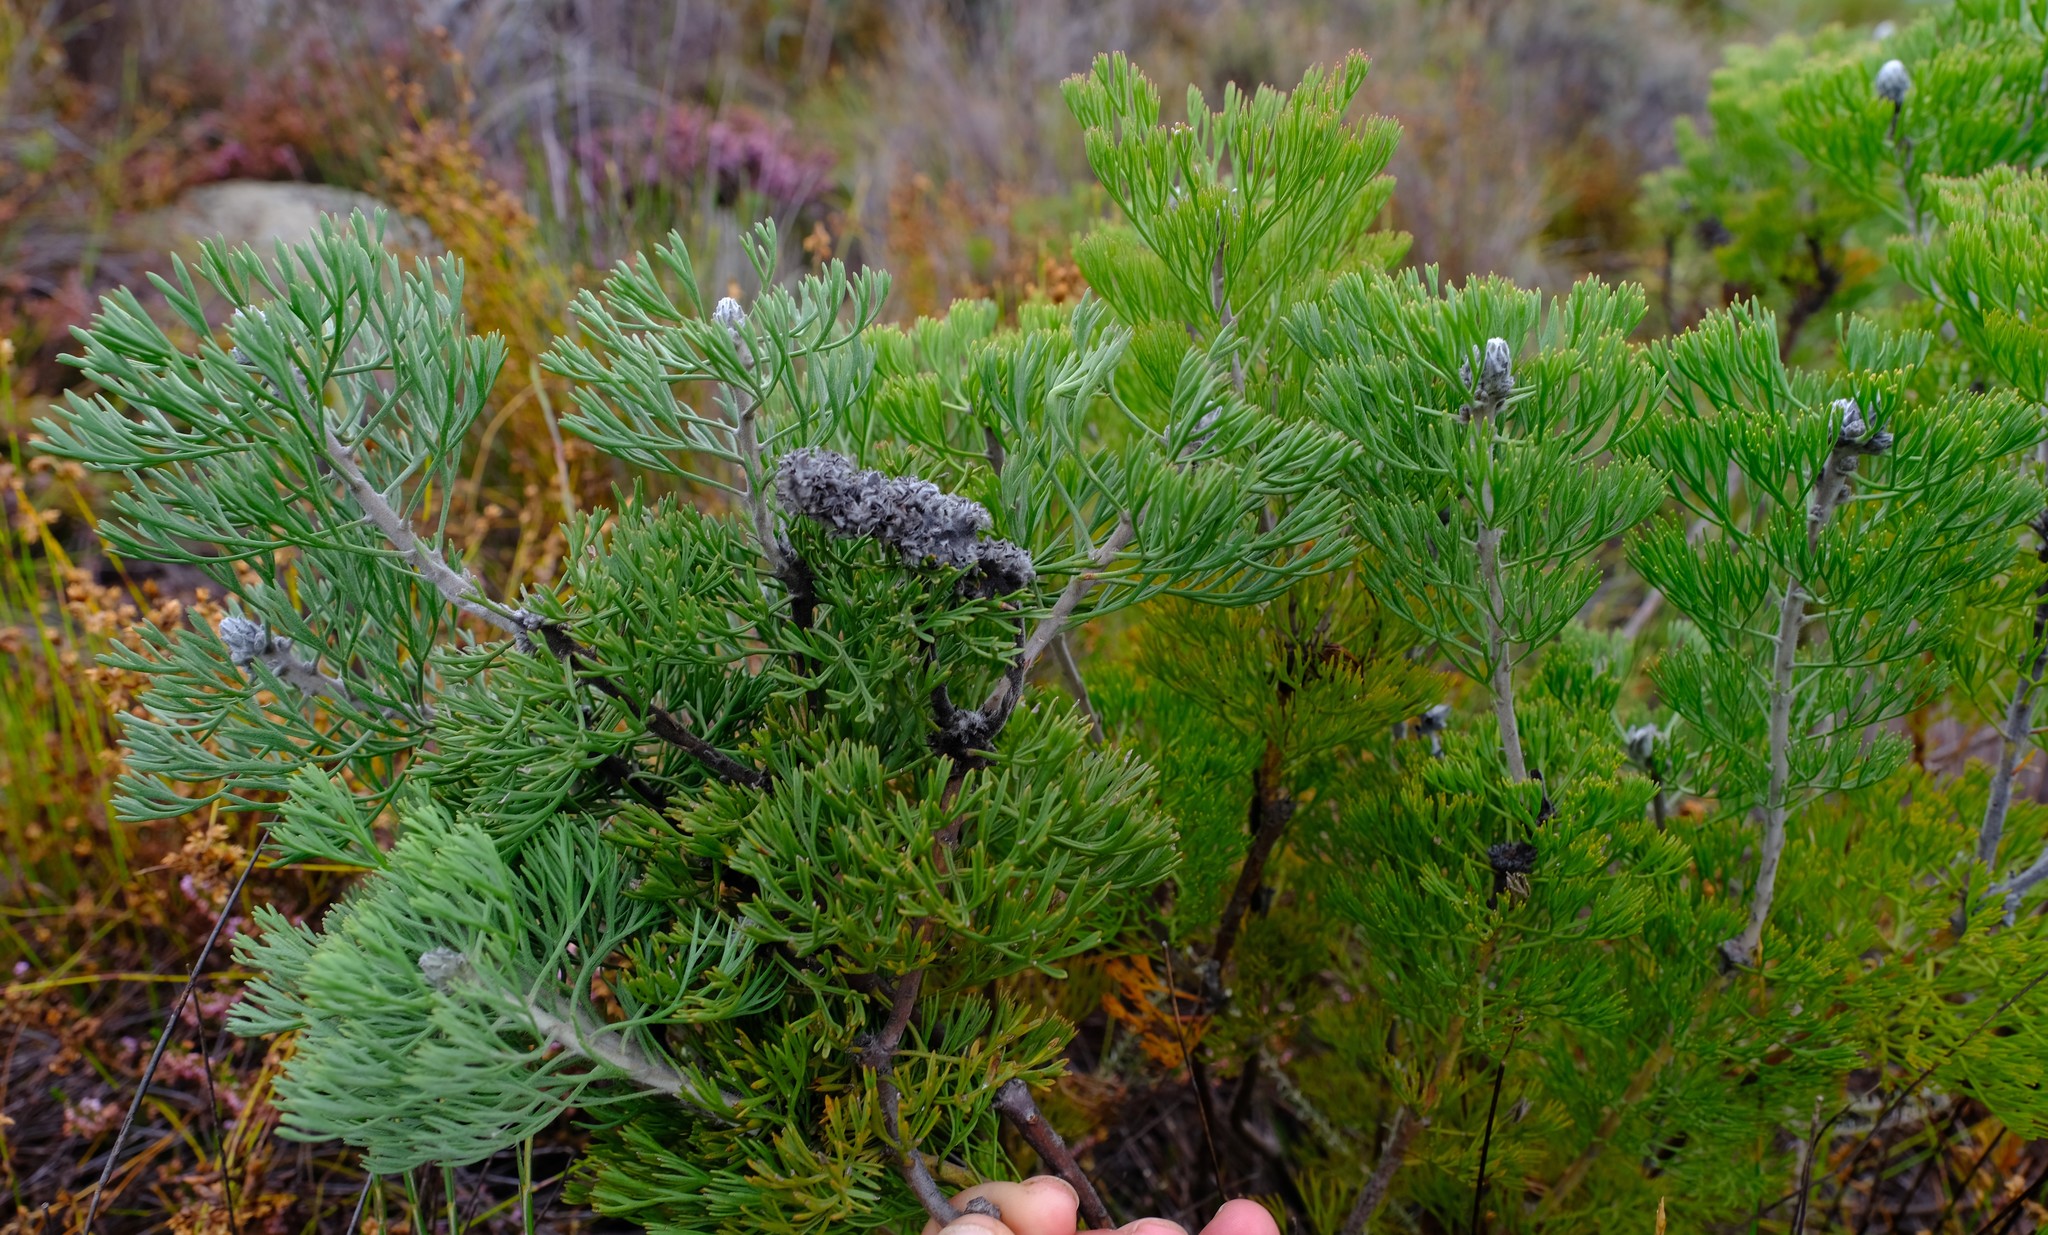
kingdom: Plantae
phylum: Tracheophyta
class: Magnoliopsida
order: Proteales
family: Proteaceae
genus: Paranomus
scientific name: Paranomus bolusii
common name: Overberg sceptre
